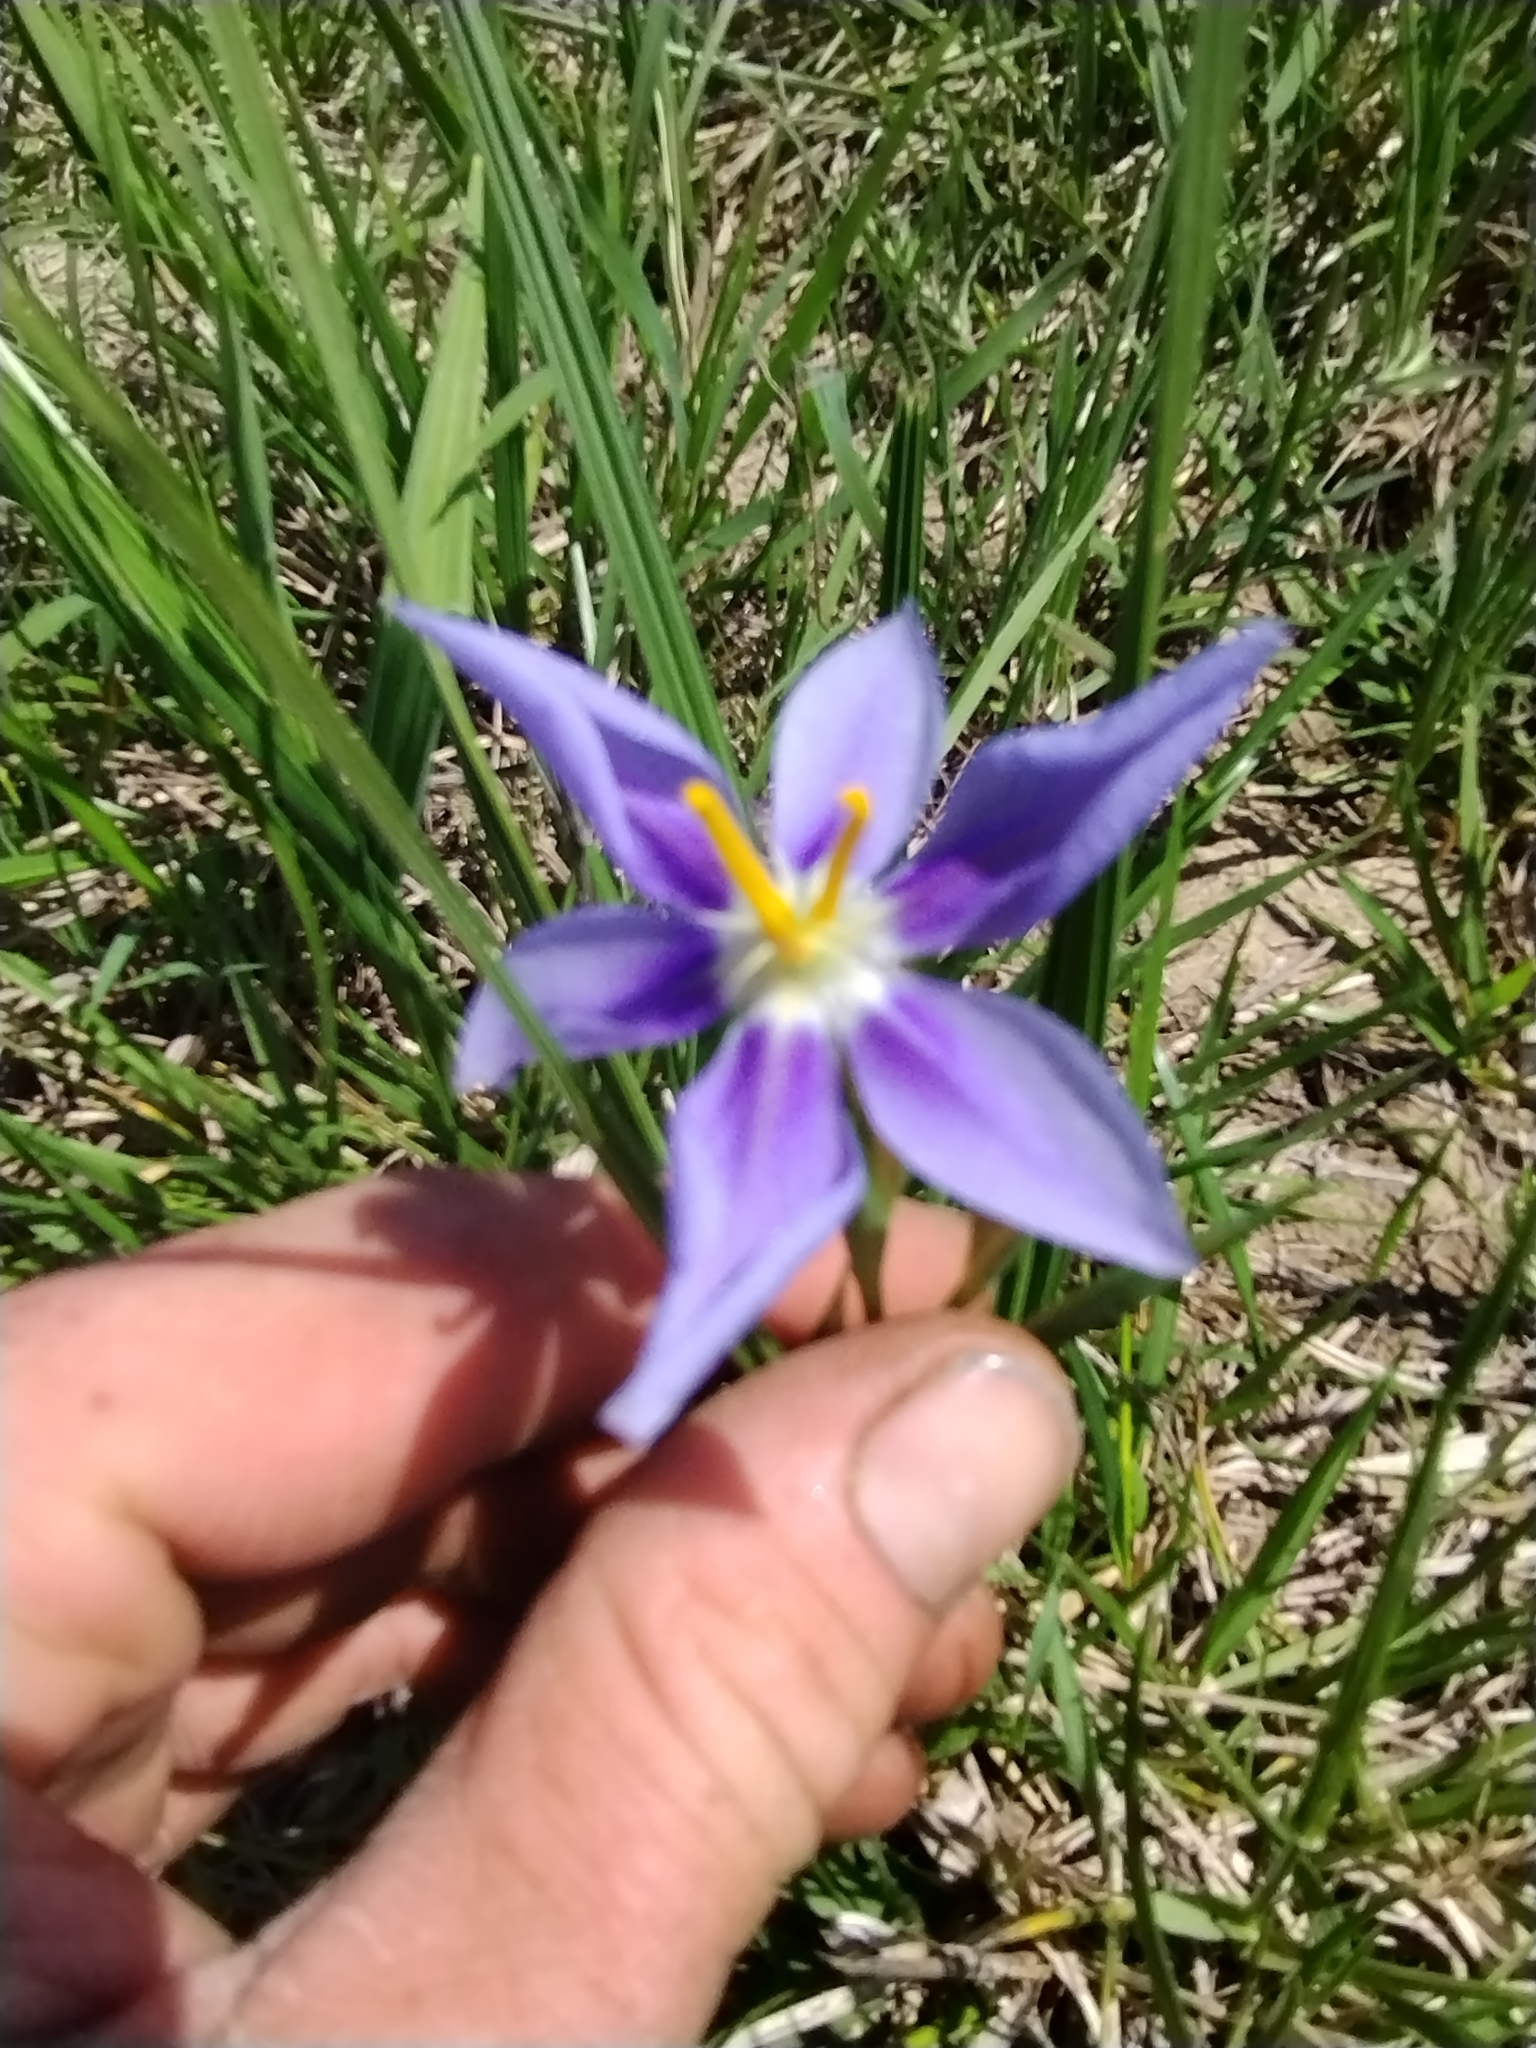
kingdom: Plantae
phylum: Tracheophyta
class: Liliopsida
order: Asparagales
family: Iridaceae
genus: Nemastylis
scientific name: Nemastylis geminiflora
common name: Prairie celestial
